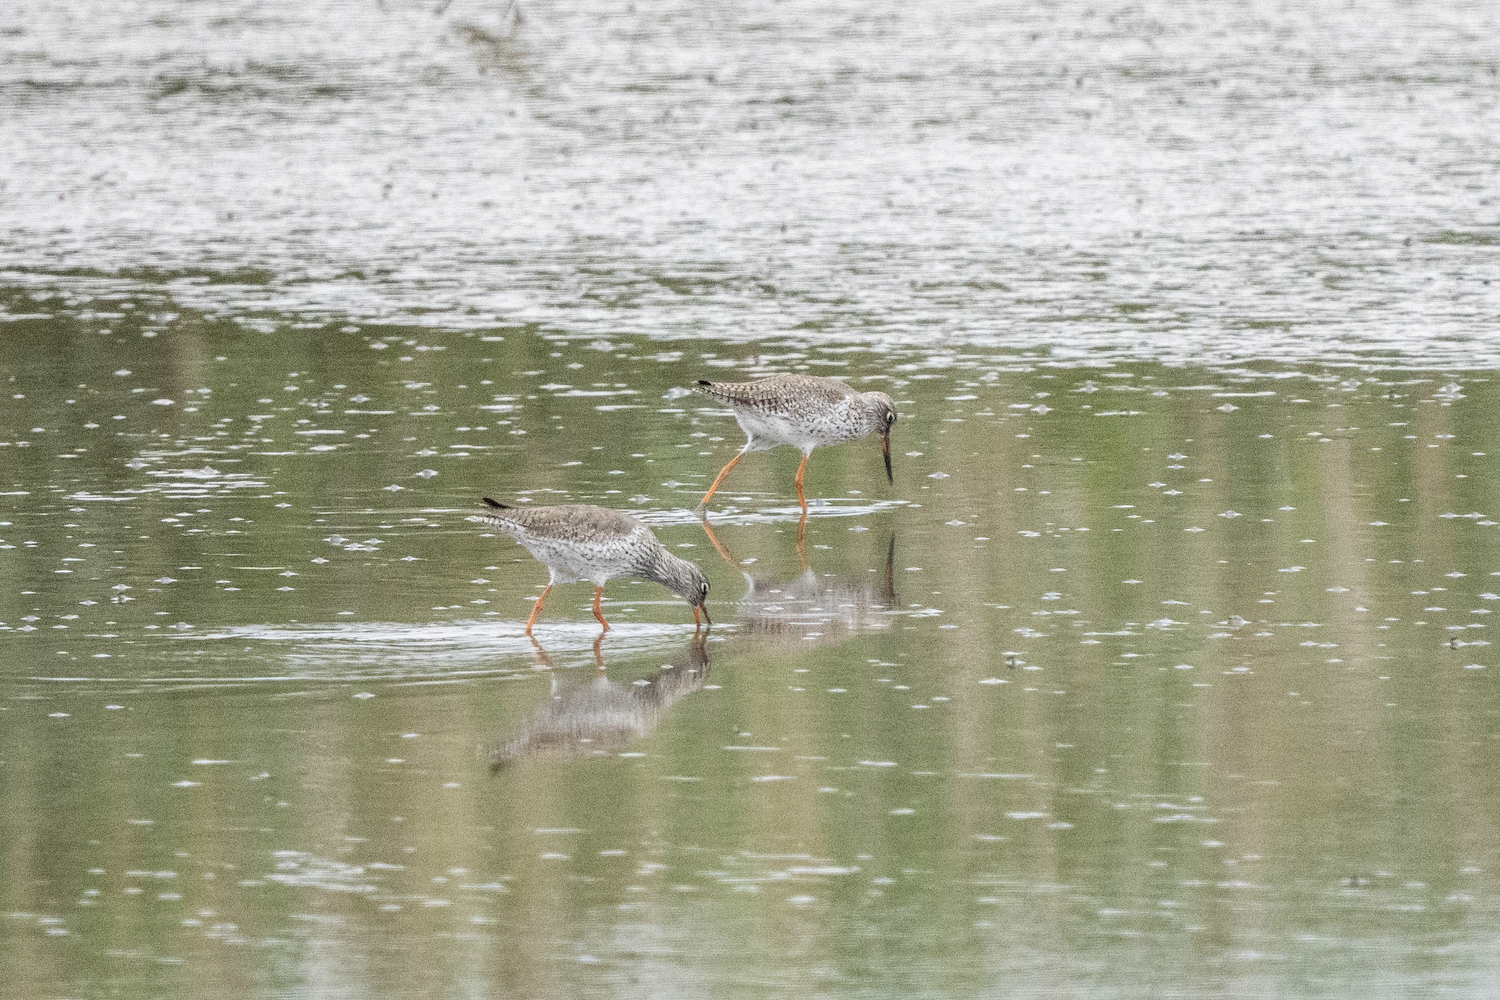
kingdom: Animalia
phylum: Chordata
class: Aves
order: Charadriiformes
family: Scolopacidae
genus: Tringa
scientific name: Tringa totanus
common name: Common redshank
